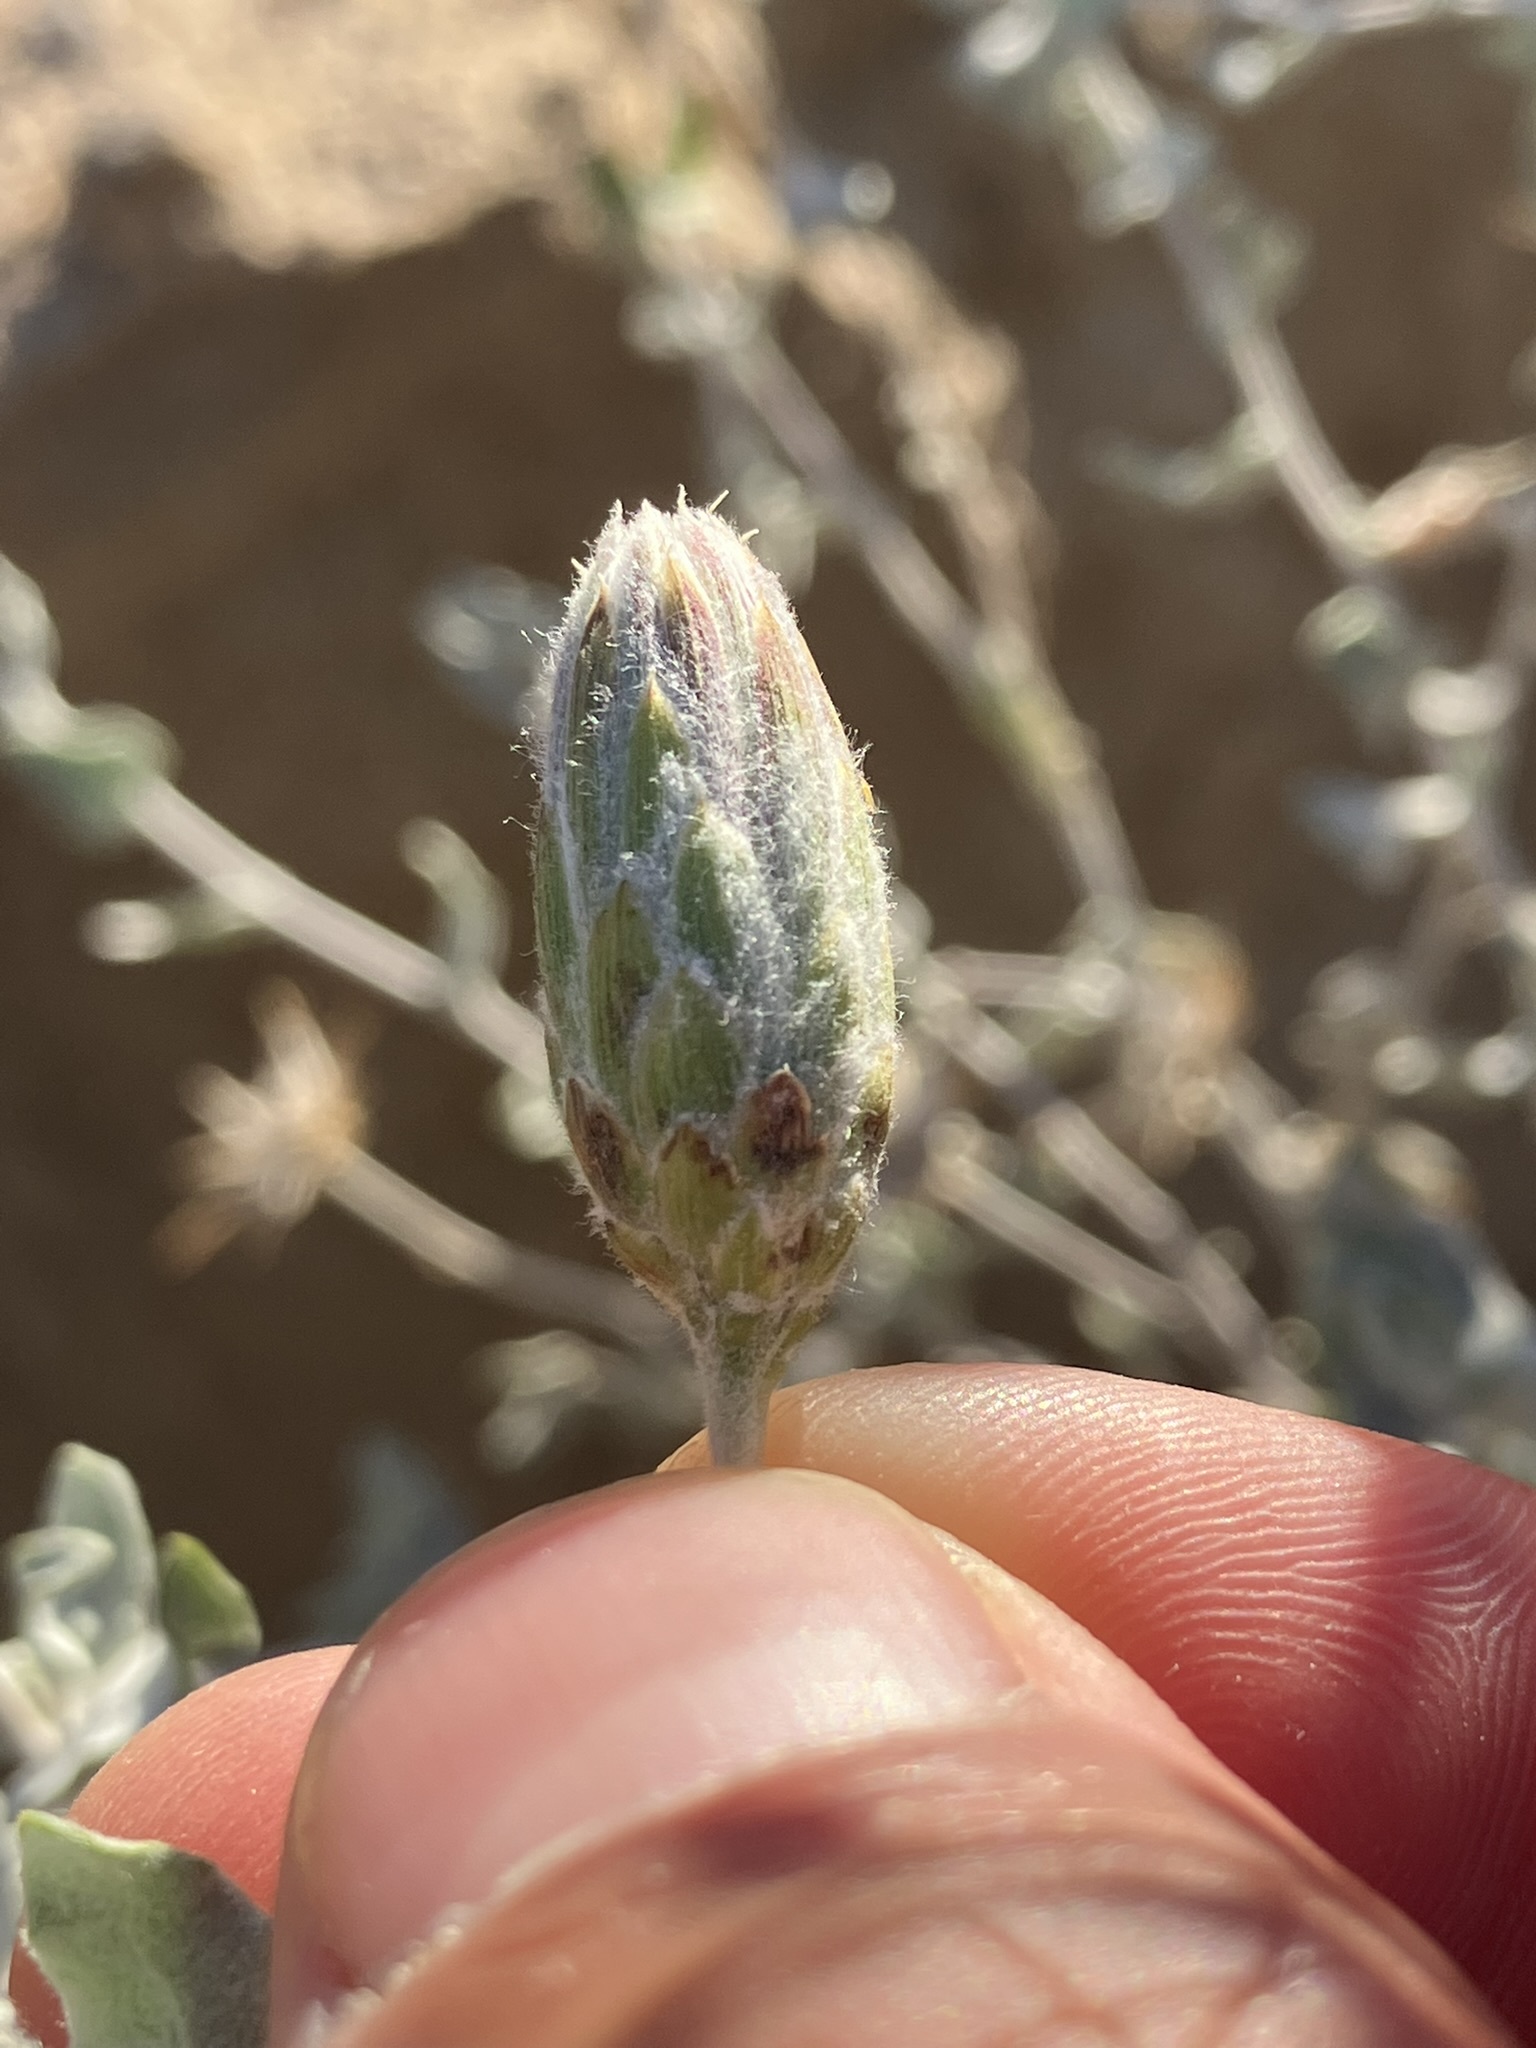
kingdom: Plantae
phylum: Tracheophyta
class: Magnoliopsida
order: Asterales
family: Asteraceae
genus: Brickellia
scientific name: Brickellia incana
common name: Woolly brickelbush
